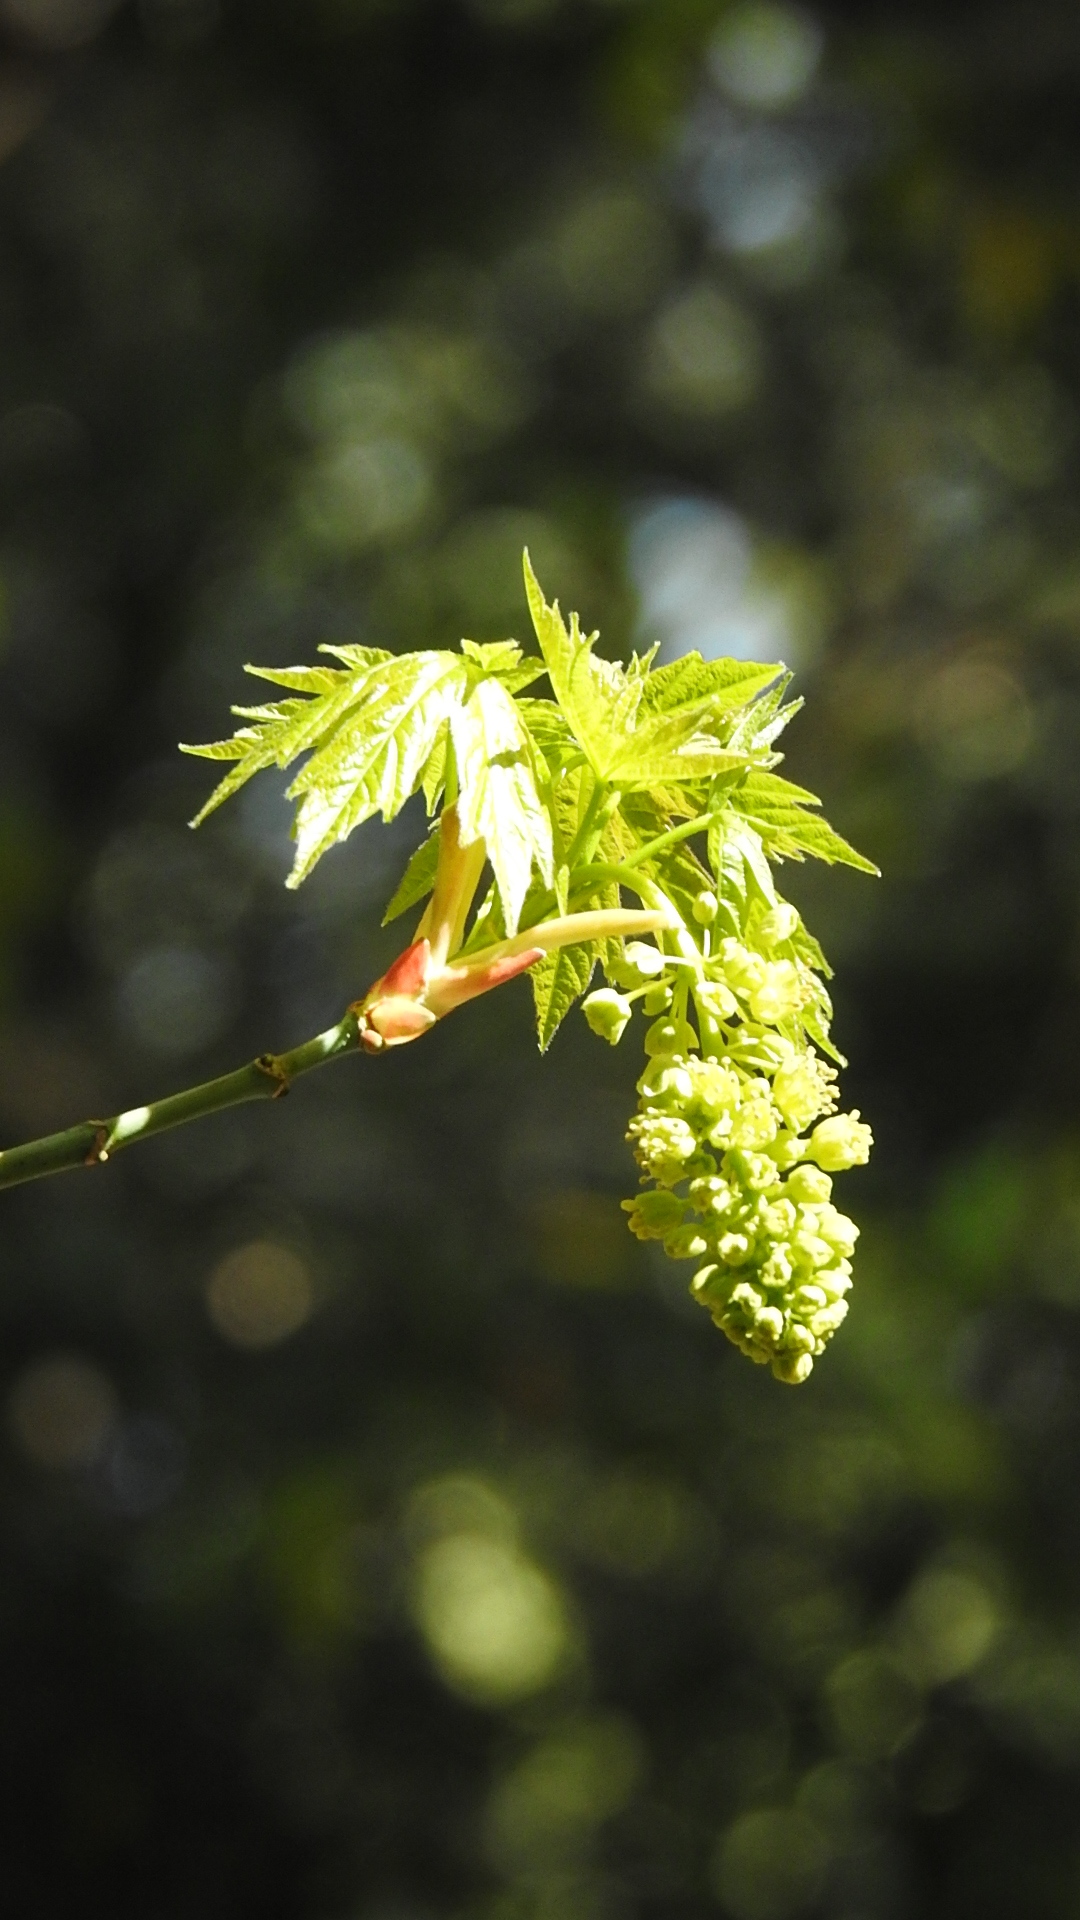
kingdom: Plantae
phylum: Tracheophyta
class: Magnoliopsida
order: Sapindales
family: Sapindaceae
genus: Acer
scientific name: Acer macrophyllum
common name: Oregon maple
